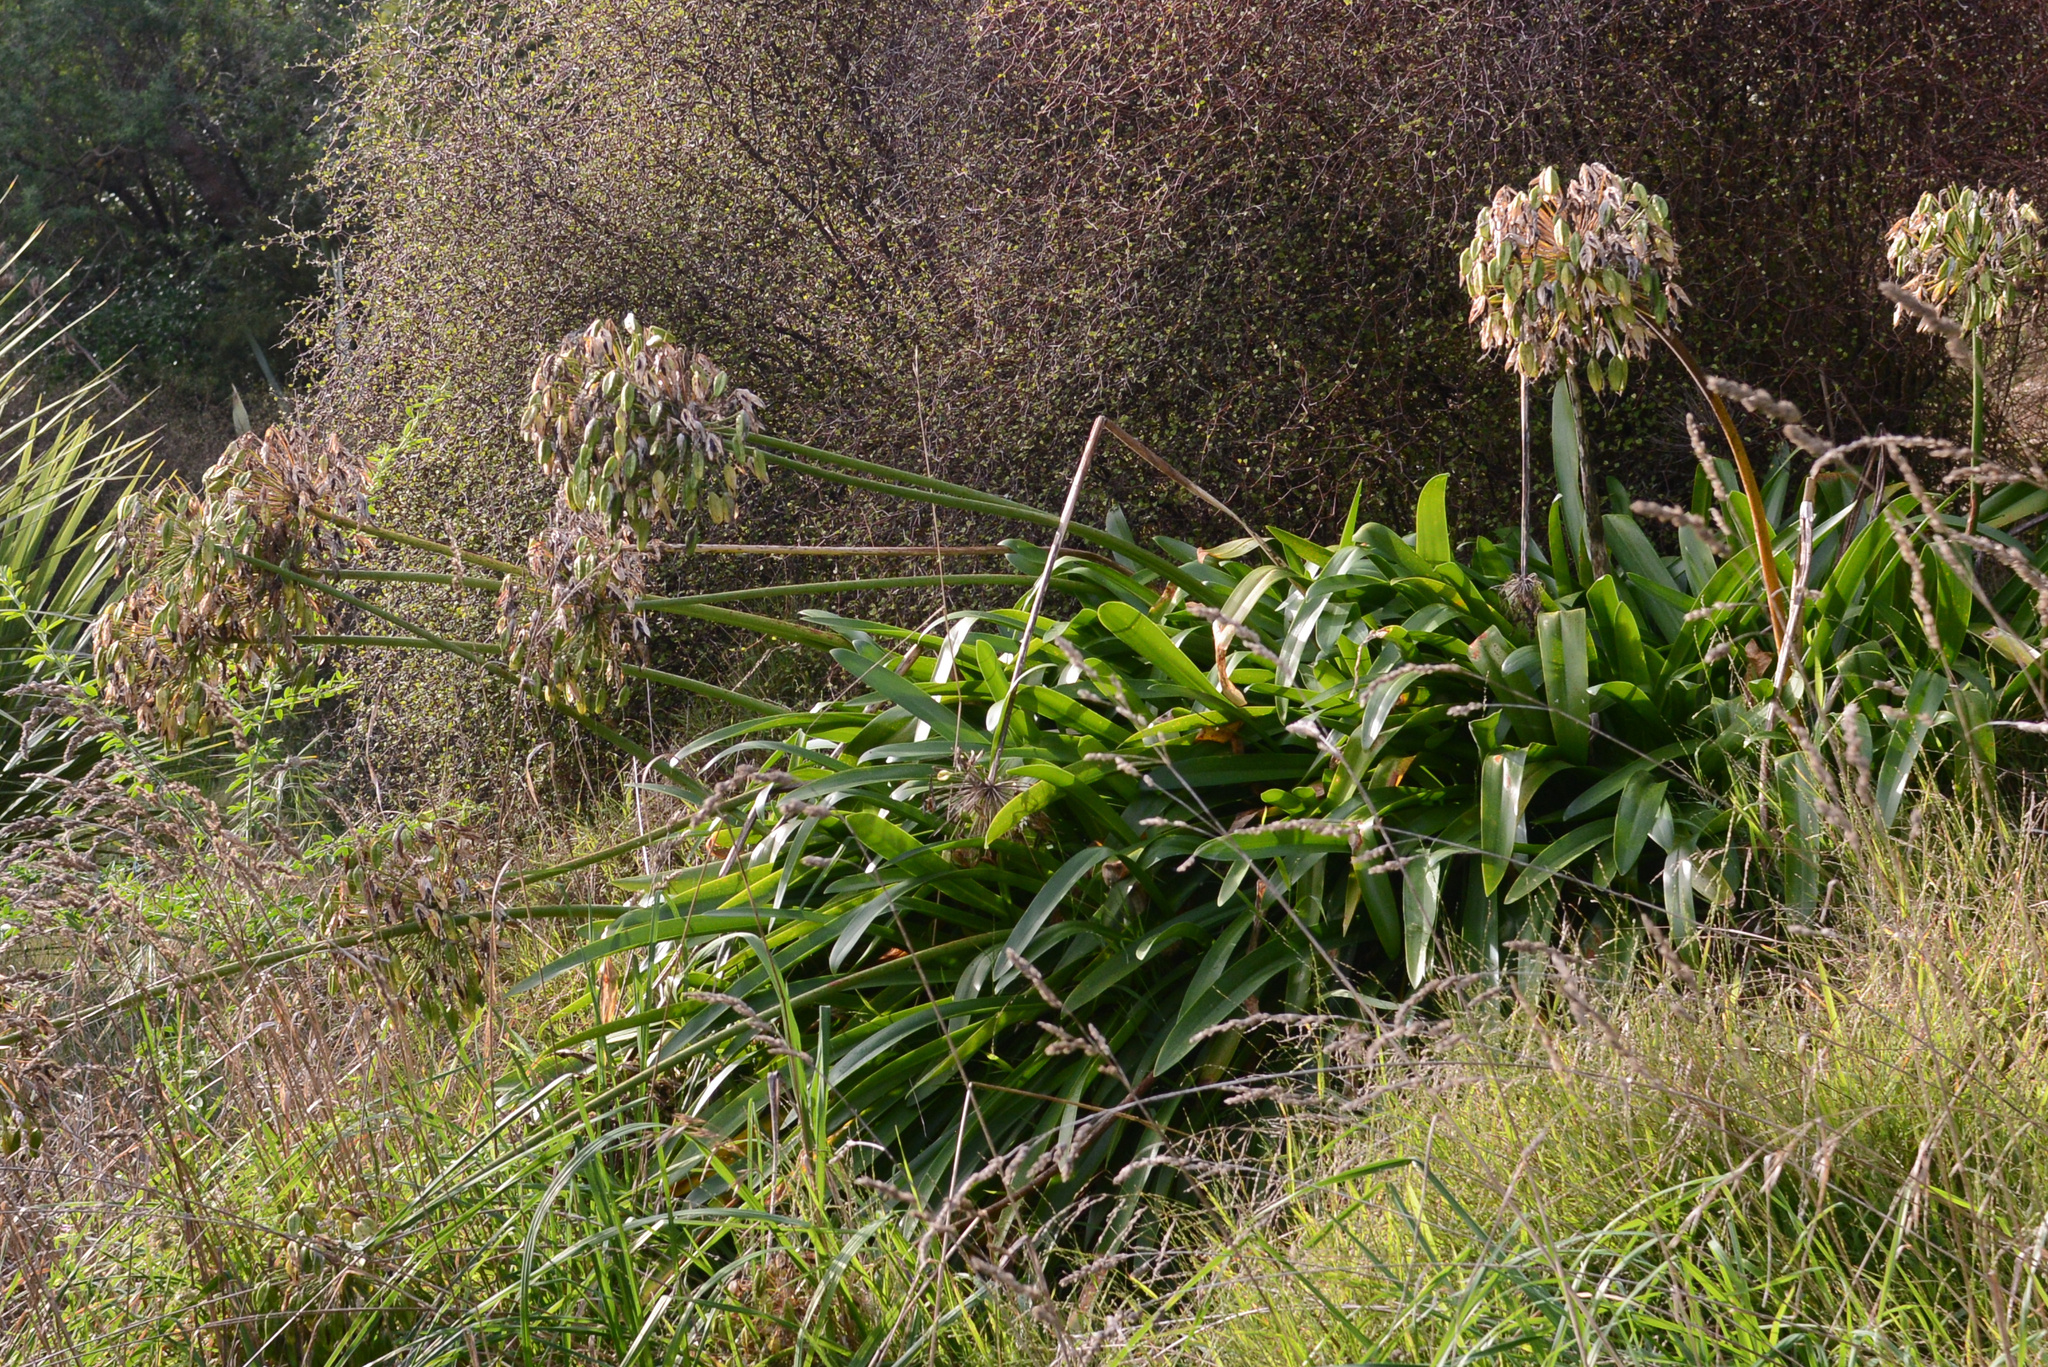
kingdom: Plantae
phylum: Tracheophyta
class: Liliopsida
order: Asparagales
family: Amaryllidaceae
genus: Agapanthus
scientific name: Agapanthus praecox
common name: African-lily
